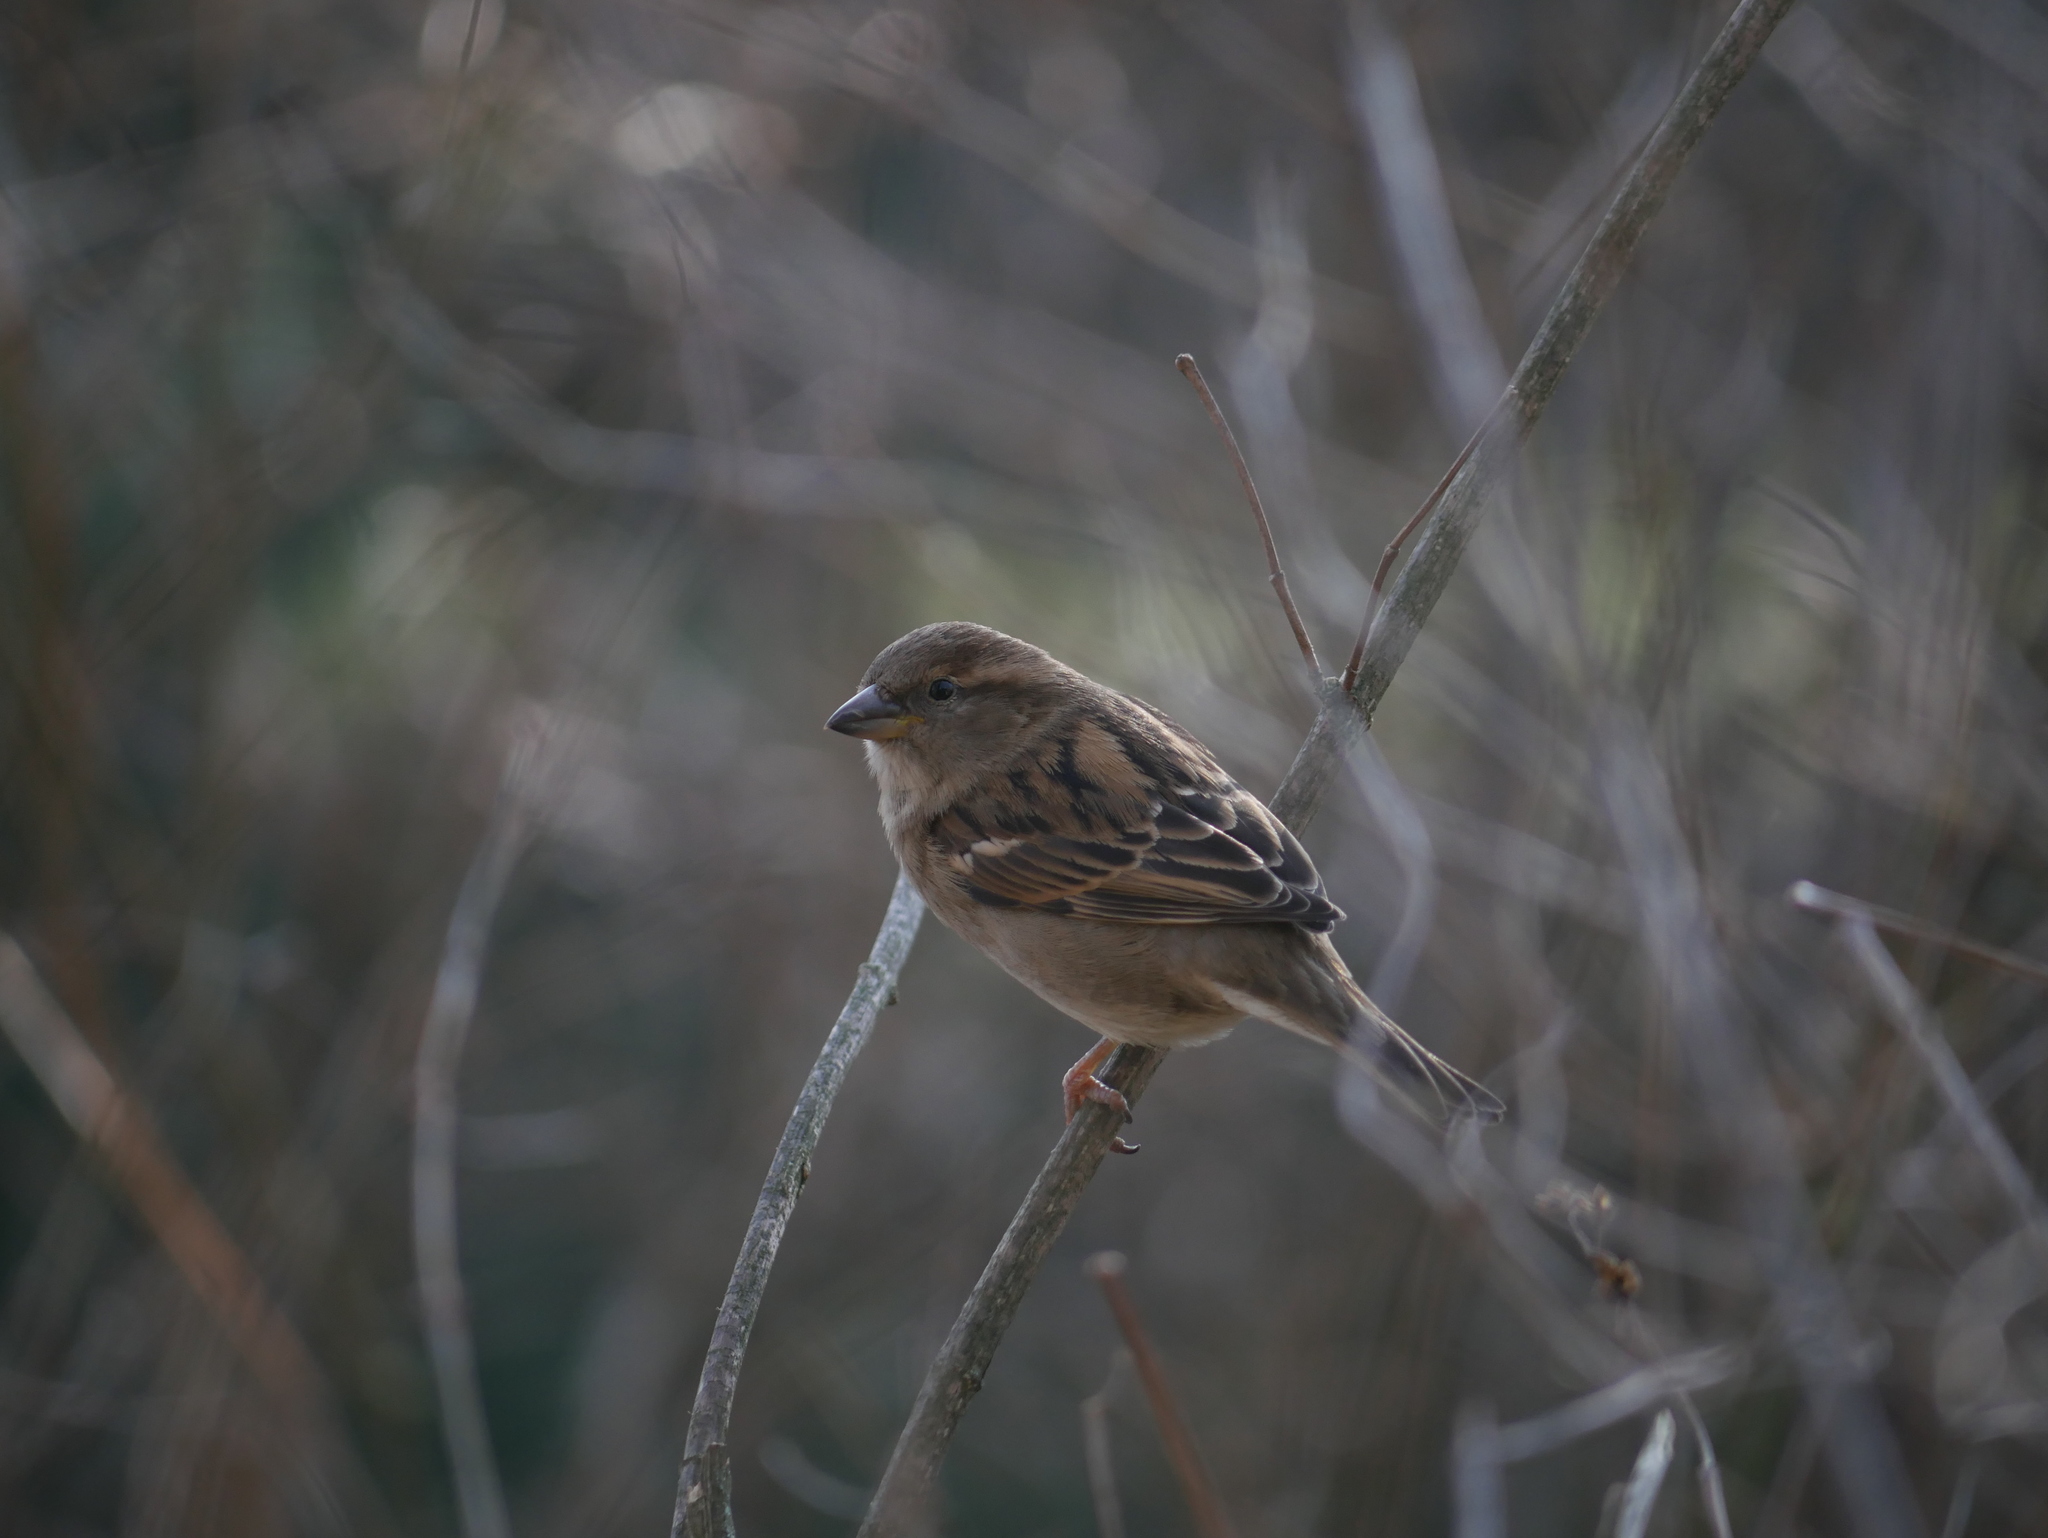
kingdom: Animalia
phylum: Chordata
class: Aves
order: Passeriformes
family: Passeridae
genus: Passer
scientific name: Passer domesticus
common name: House sparrow
